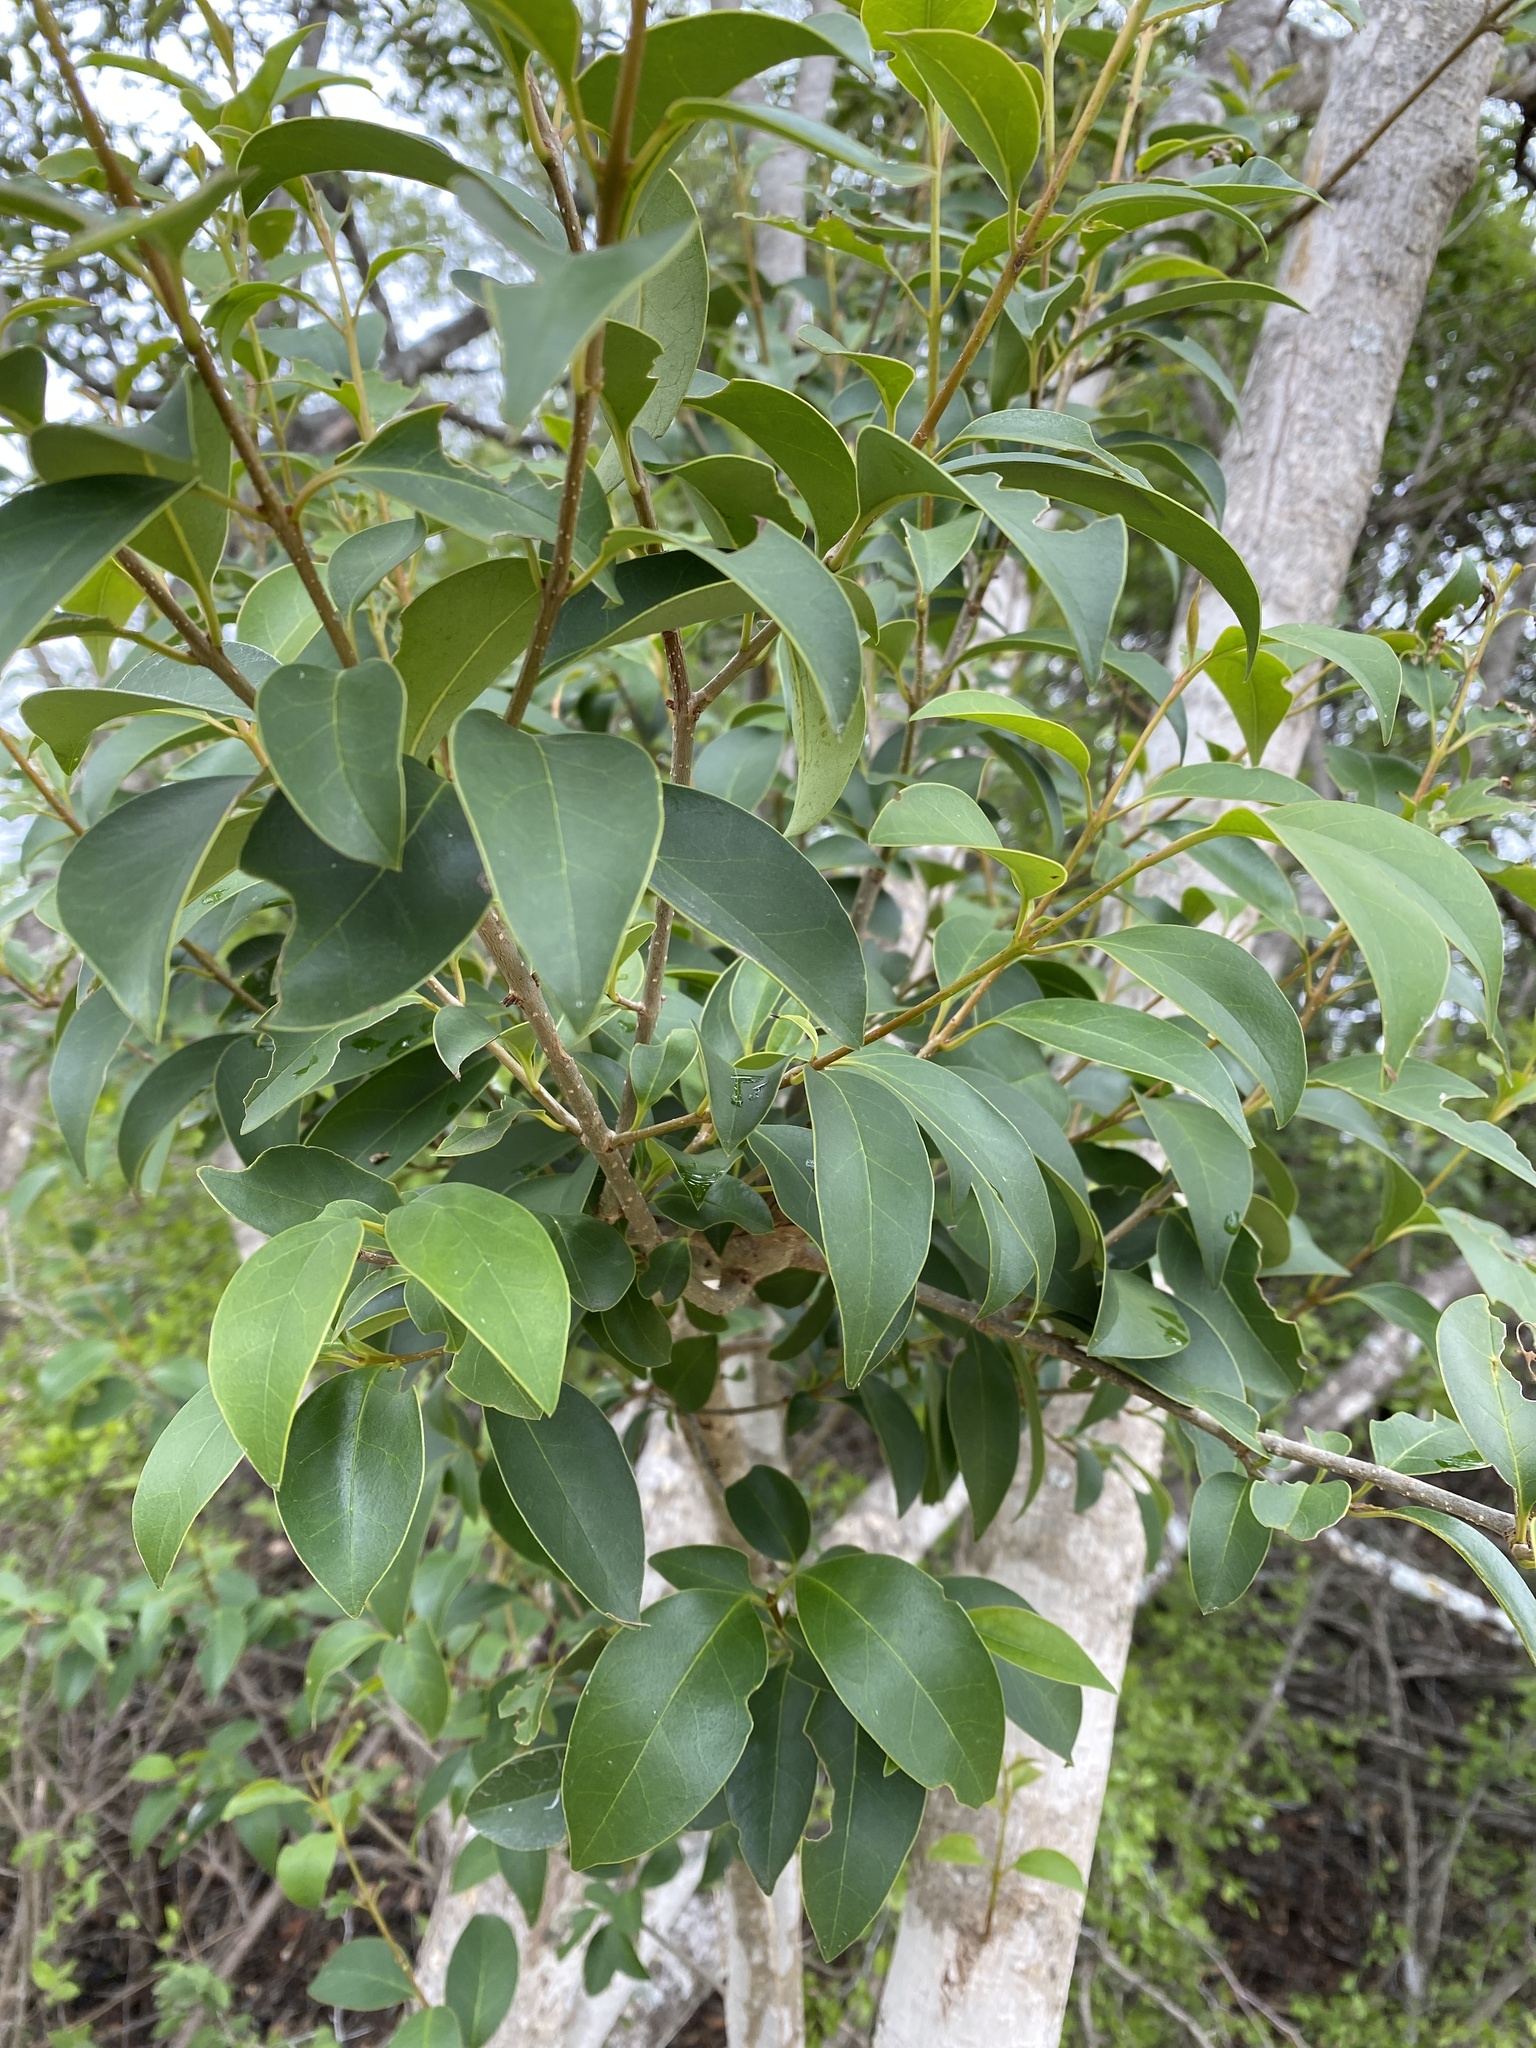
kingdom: Plantae
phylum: Tracheophyta
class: Magnoliopsida
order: Lamiales
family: Oleaceae
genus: Ligustrum
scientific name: Ligustrum lucidum
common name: Glossy privet
